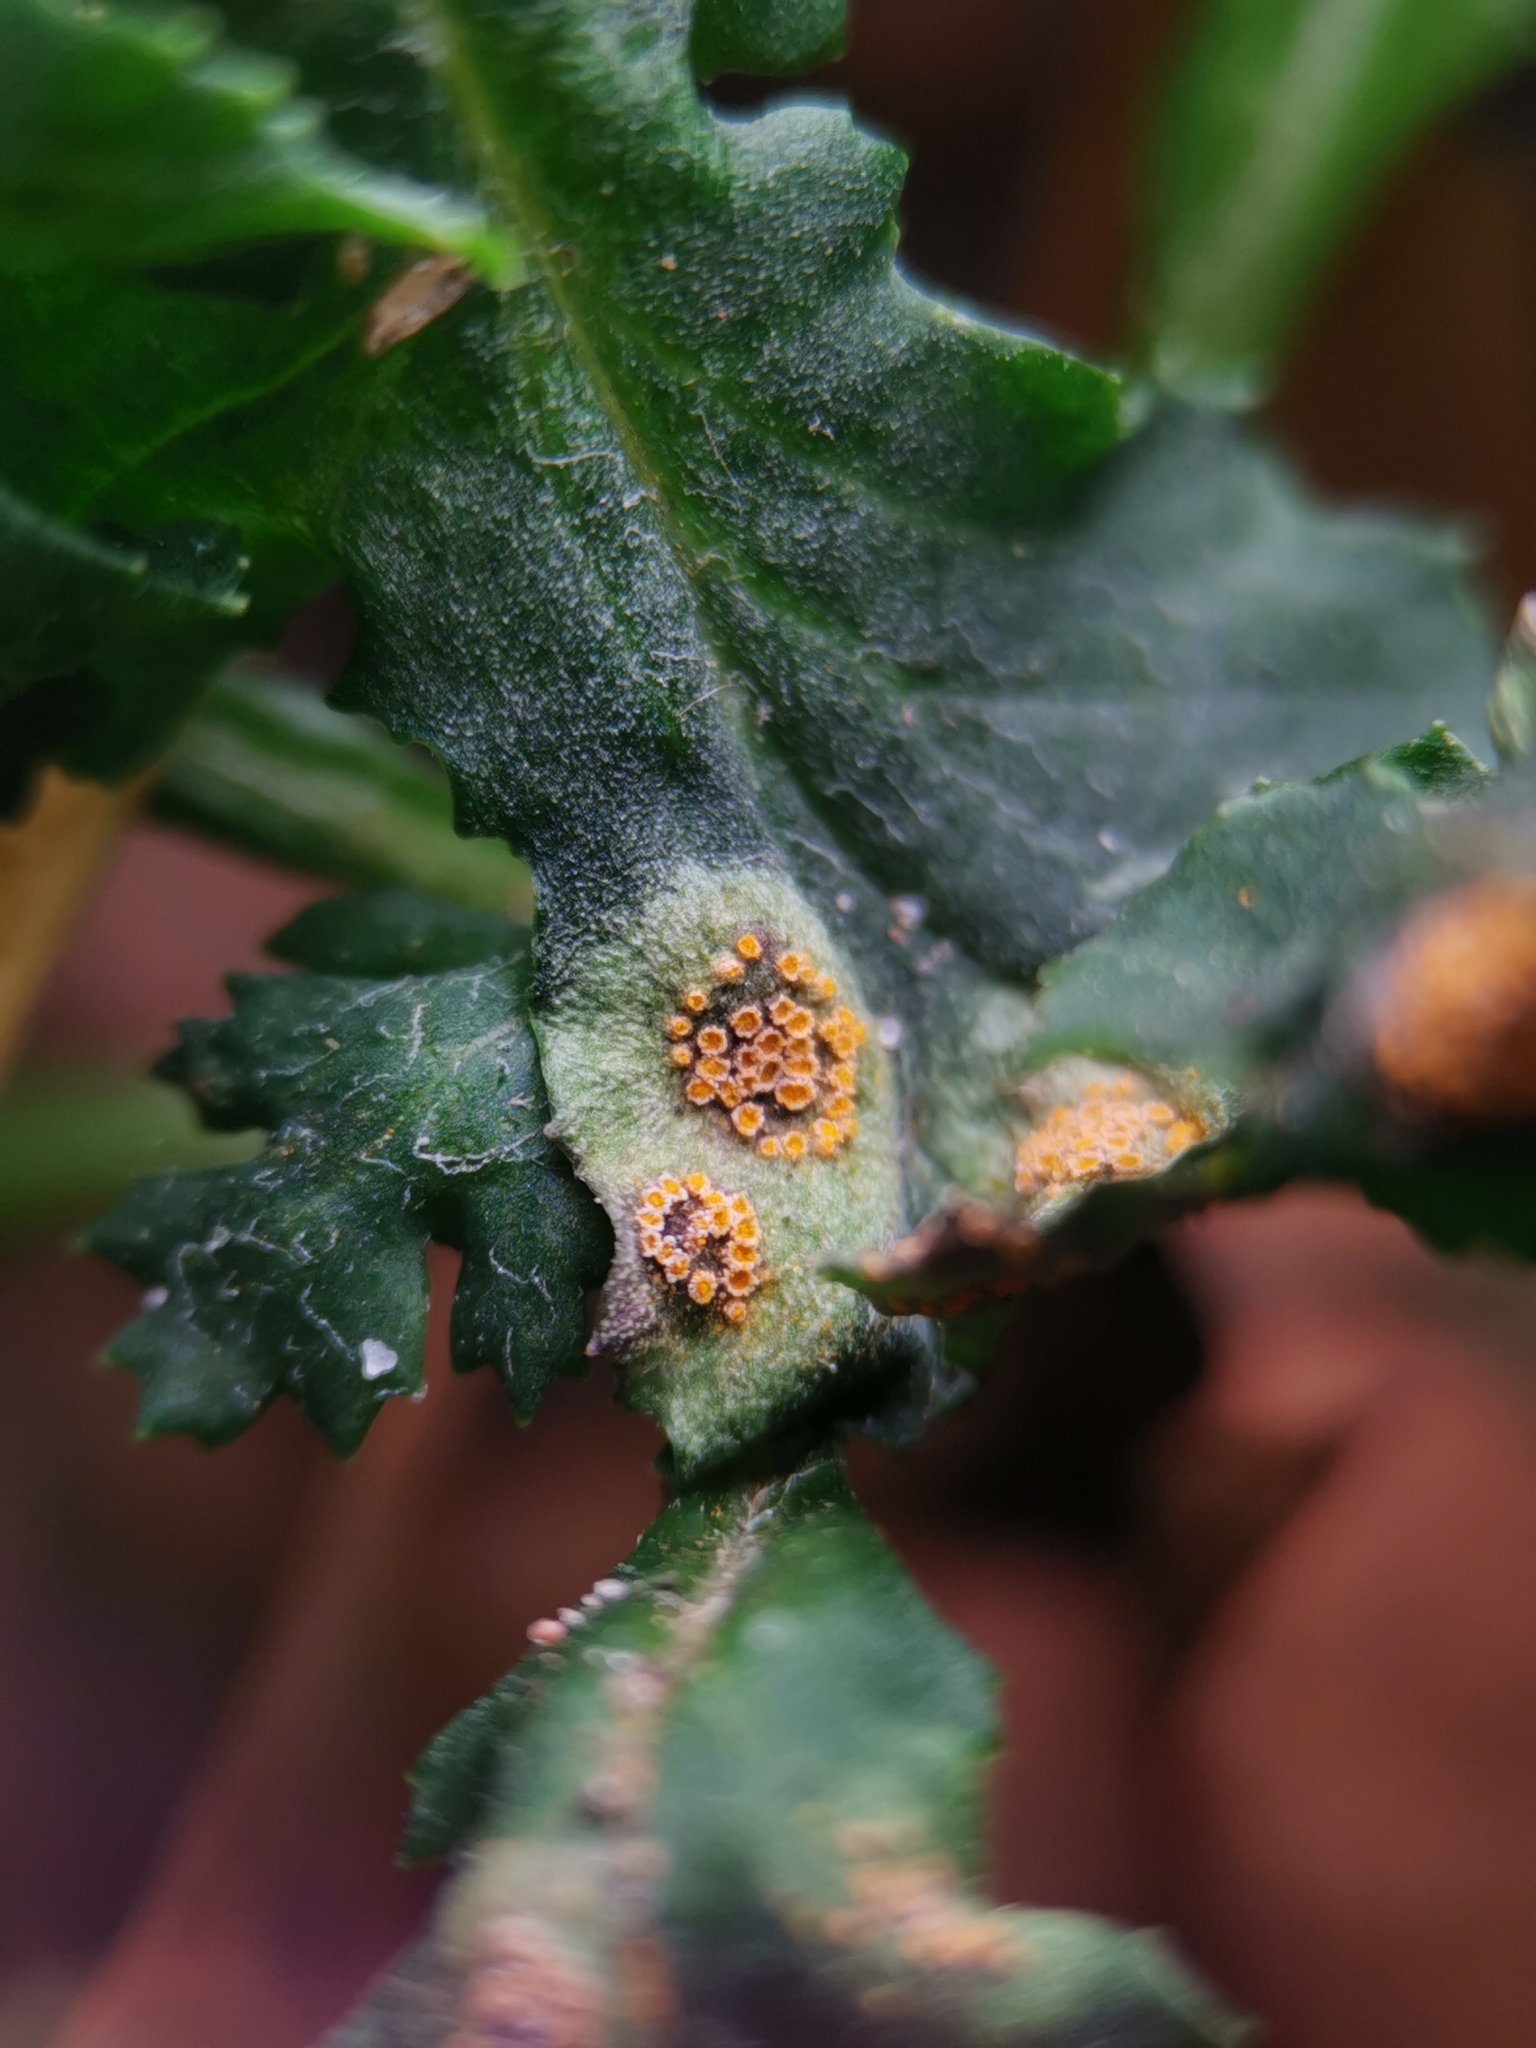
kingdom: Fungi
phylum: Basidiomycota
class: Pucciniomycetes
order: Pucciniales
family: Pucciniaceae
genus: Puccinia
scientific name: Puccinia lagenophorae
